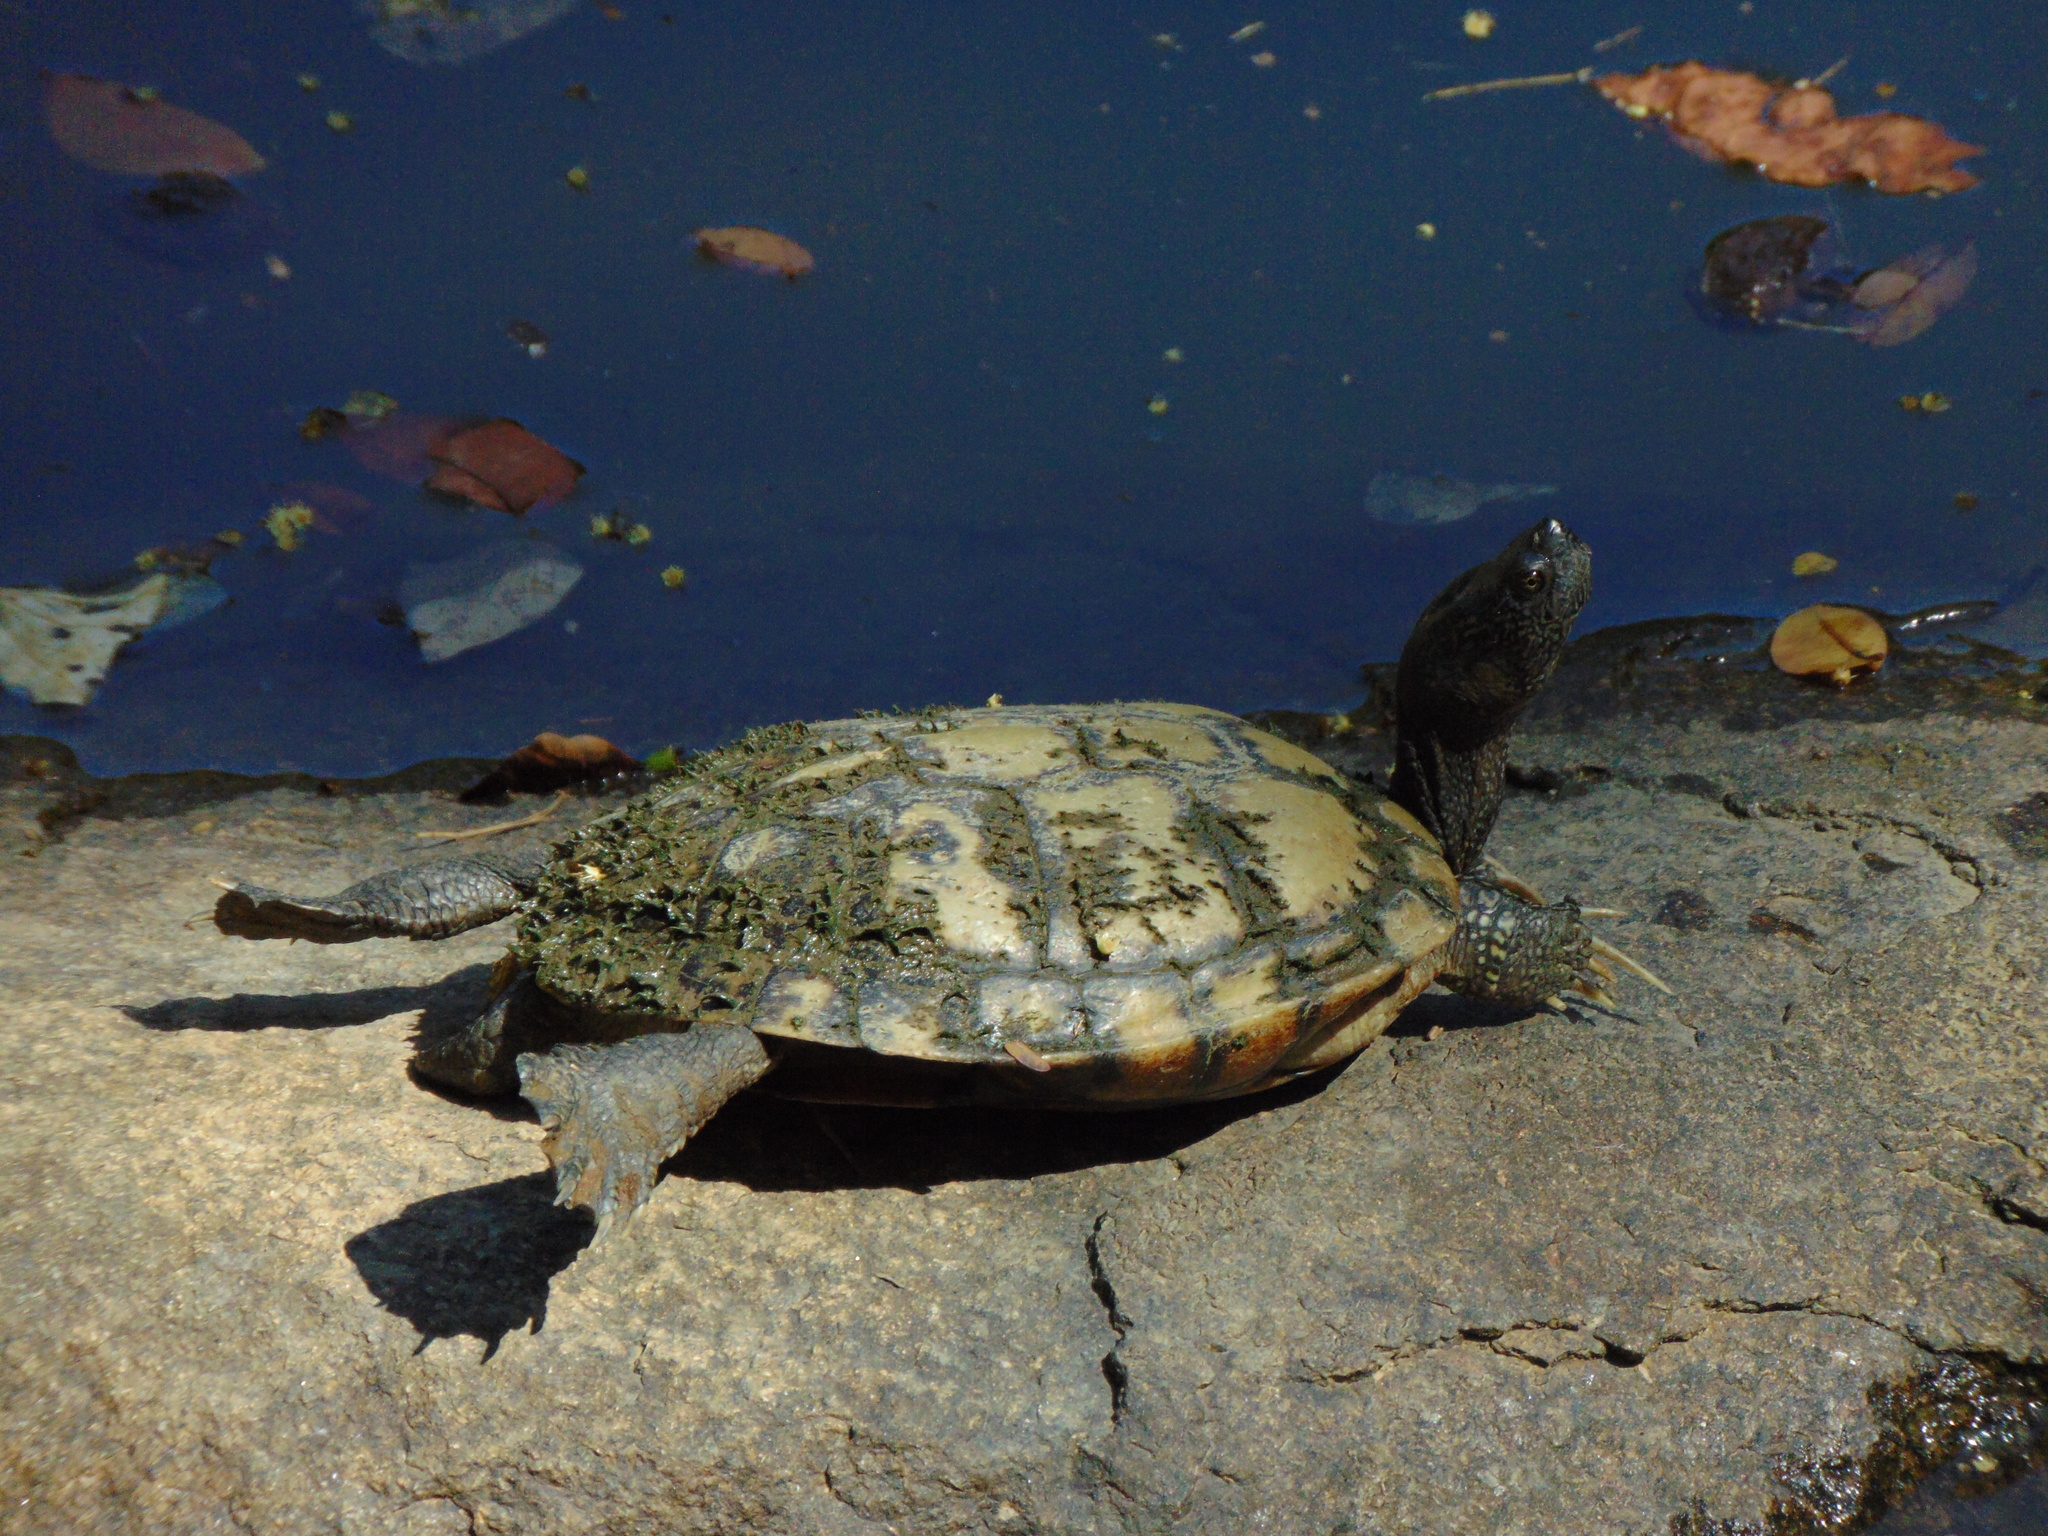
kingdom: Animalia
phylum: Chordata
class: Testudines
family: Emydidae
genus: Trachemys
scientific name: Trachemys stejnegeri
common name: Puerto rican slider
